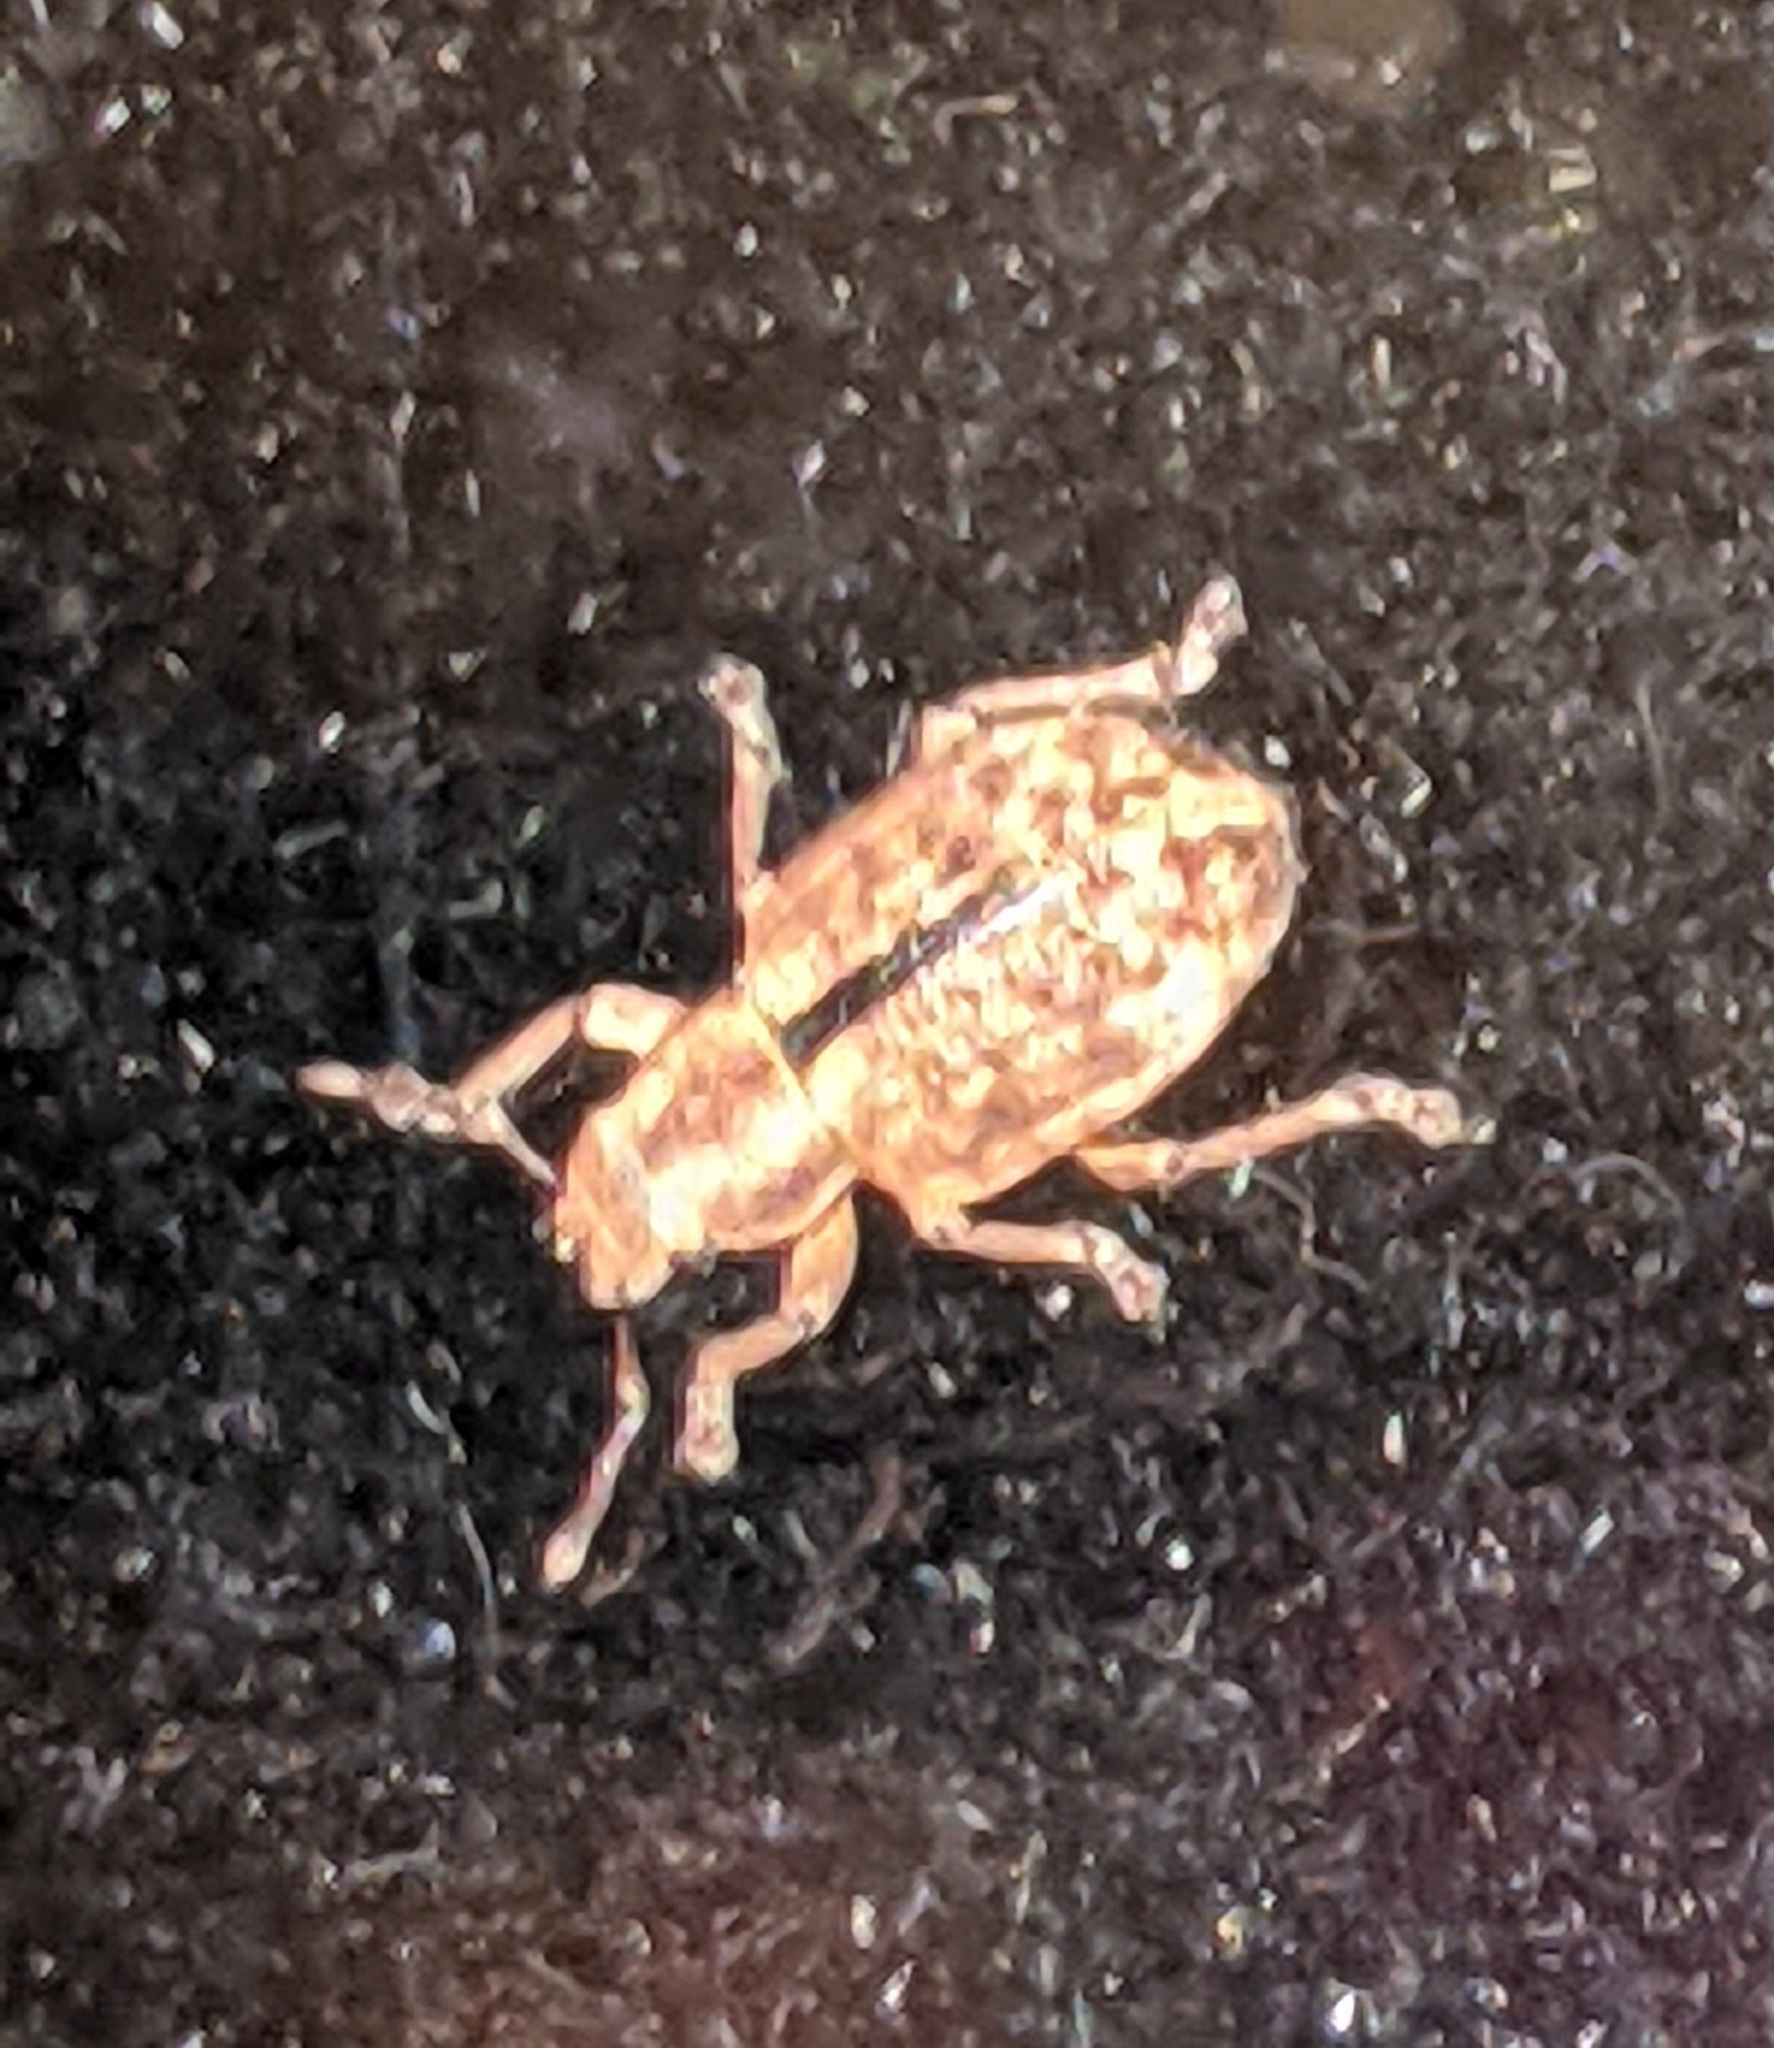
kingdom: Animalia
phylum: Arthropoda
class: Insecta
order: Coleoptera
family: Curculionidae
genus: Strophosoma
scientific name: Strophosoma melanogrammum
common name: Weevil
